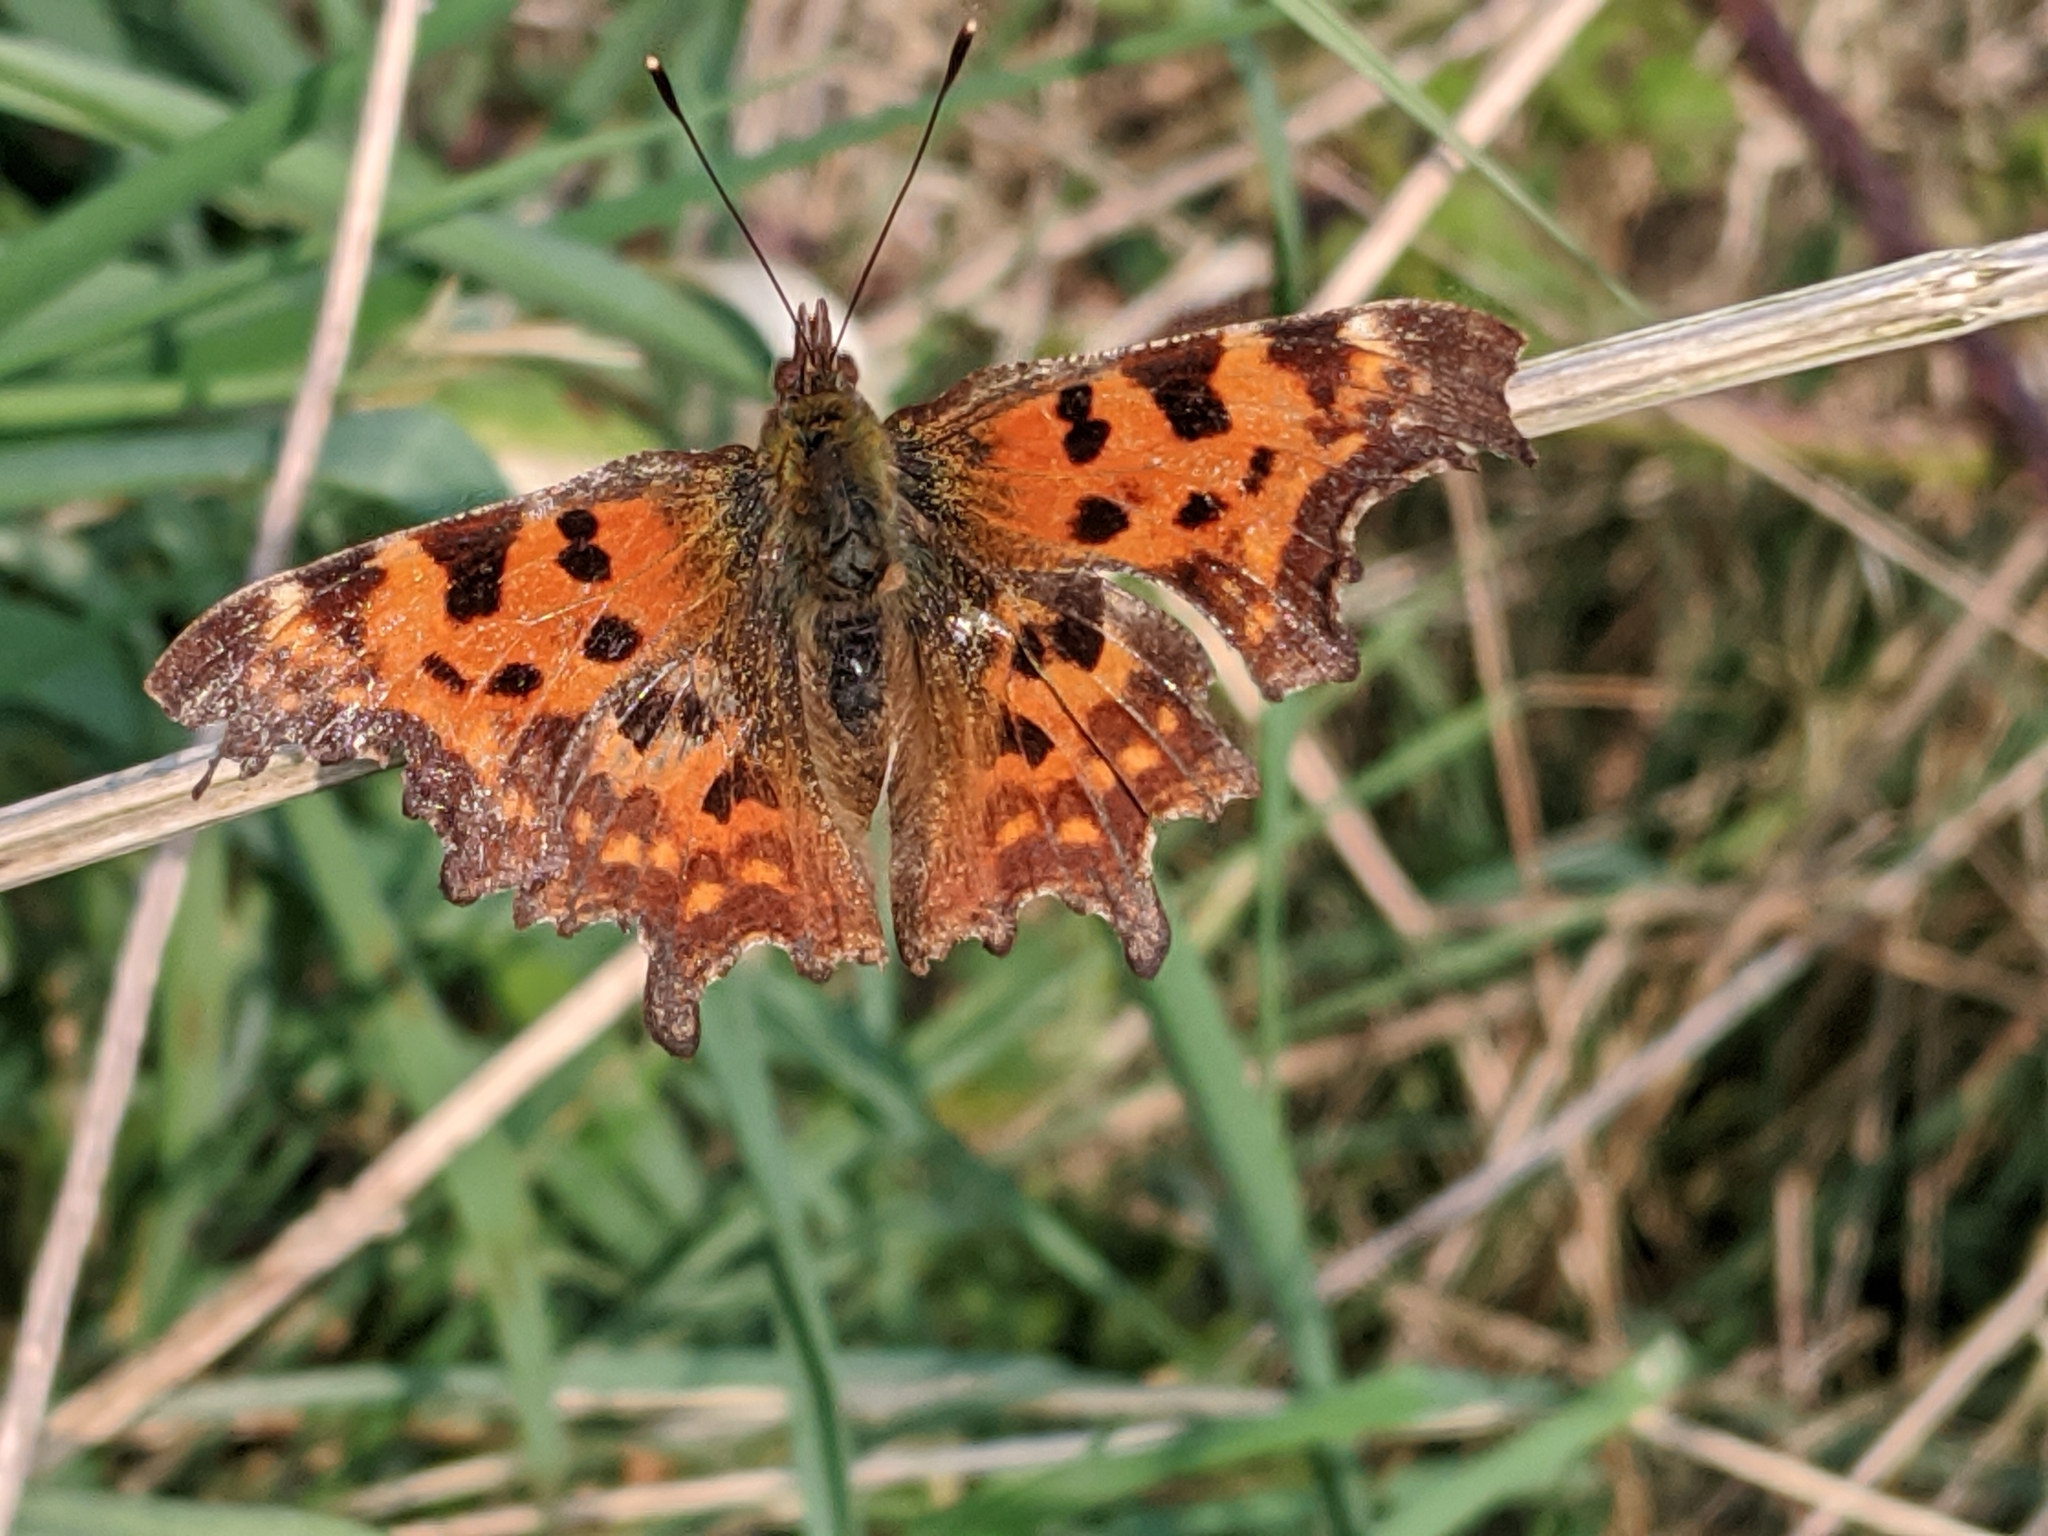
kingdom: Animalia
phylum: Arthropoda
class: Insecta
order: Lepidoptera
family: Nymphalidae
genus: Polygonia
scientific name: Polygonia c-album
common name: Comma
